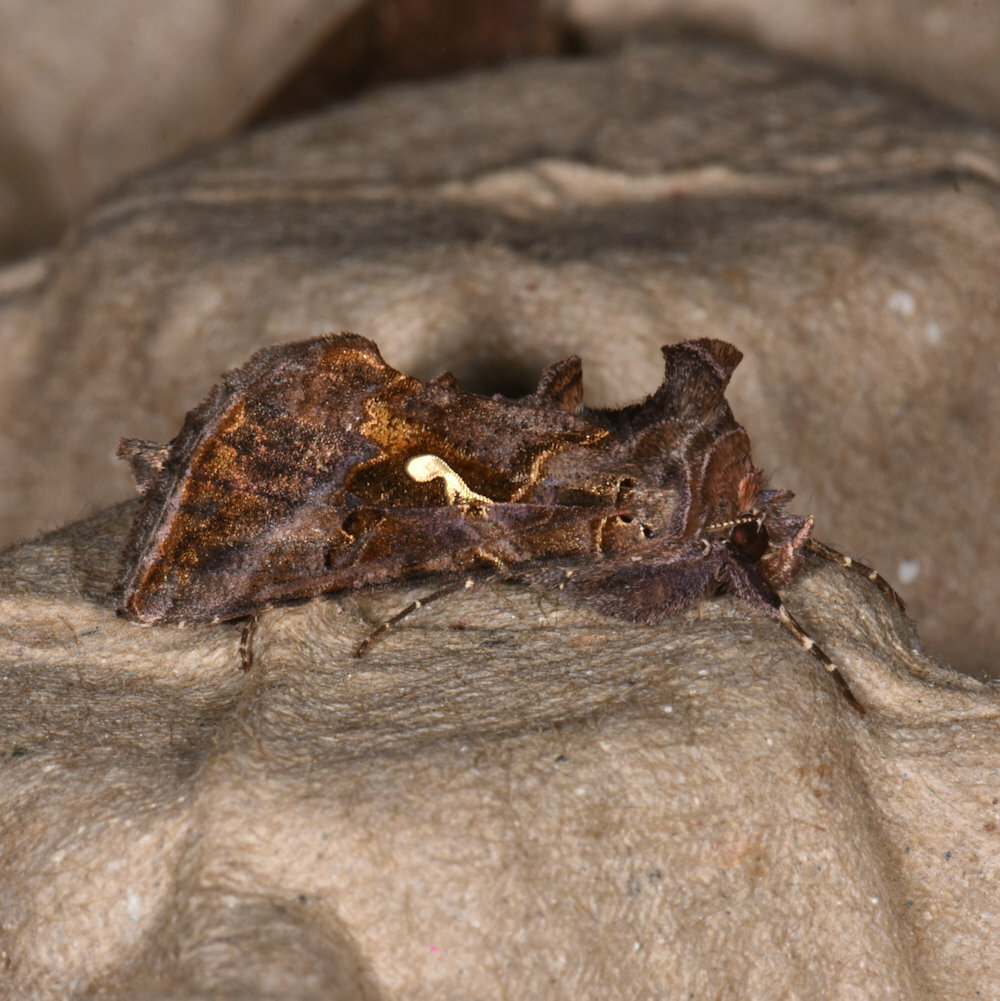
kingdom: Animalia
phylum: Arthropoda
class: Insecta
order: Lepidoptera
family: Noctuidae
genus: Autographa
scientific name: Autographa precationis
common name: Common looper moth
